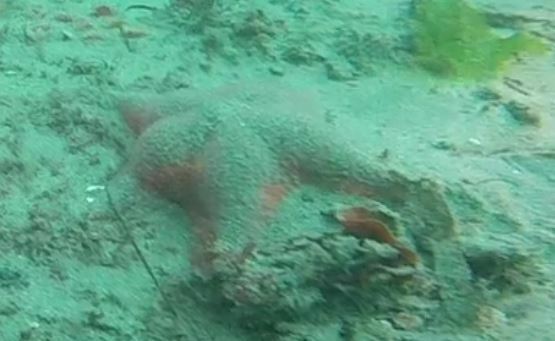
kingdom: Animalia
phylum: Echinodermata
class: Asteroidea
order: Valvatida
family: Asterinidae
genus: Patiria
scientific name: Patiria miniata
